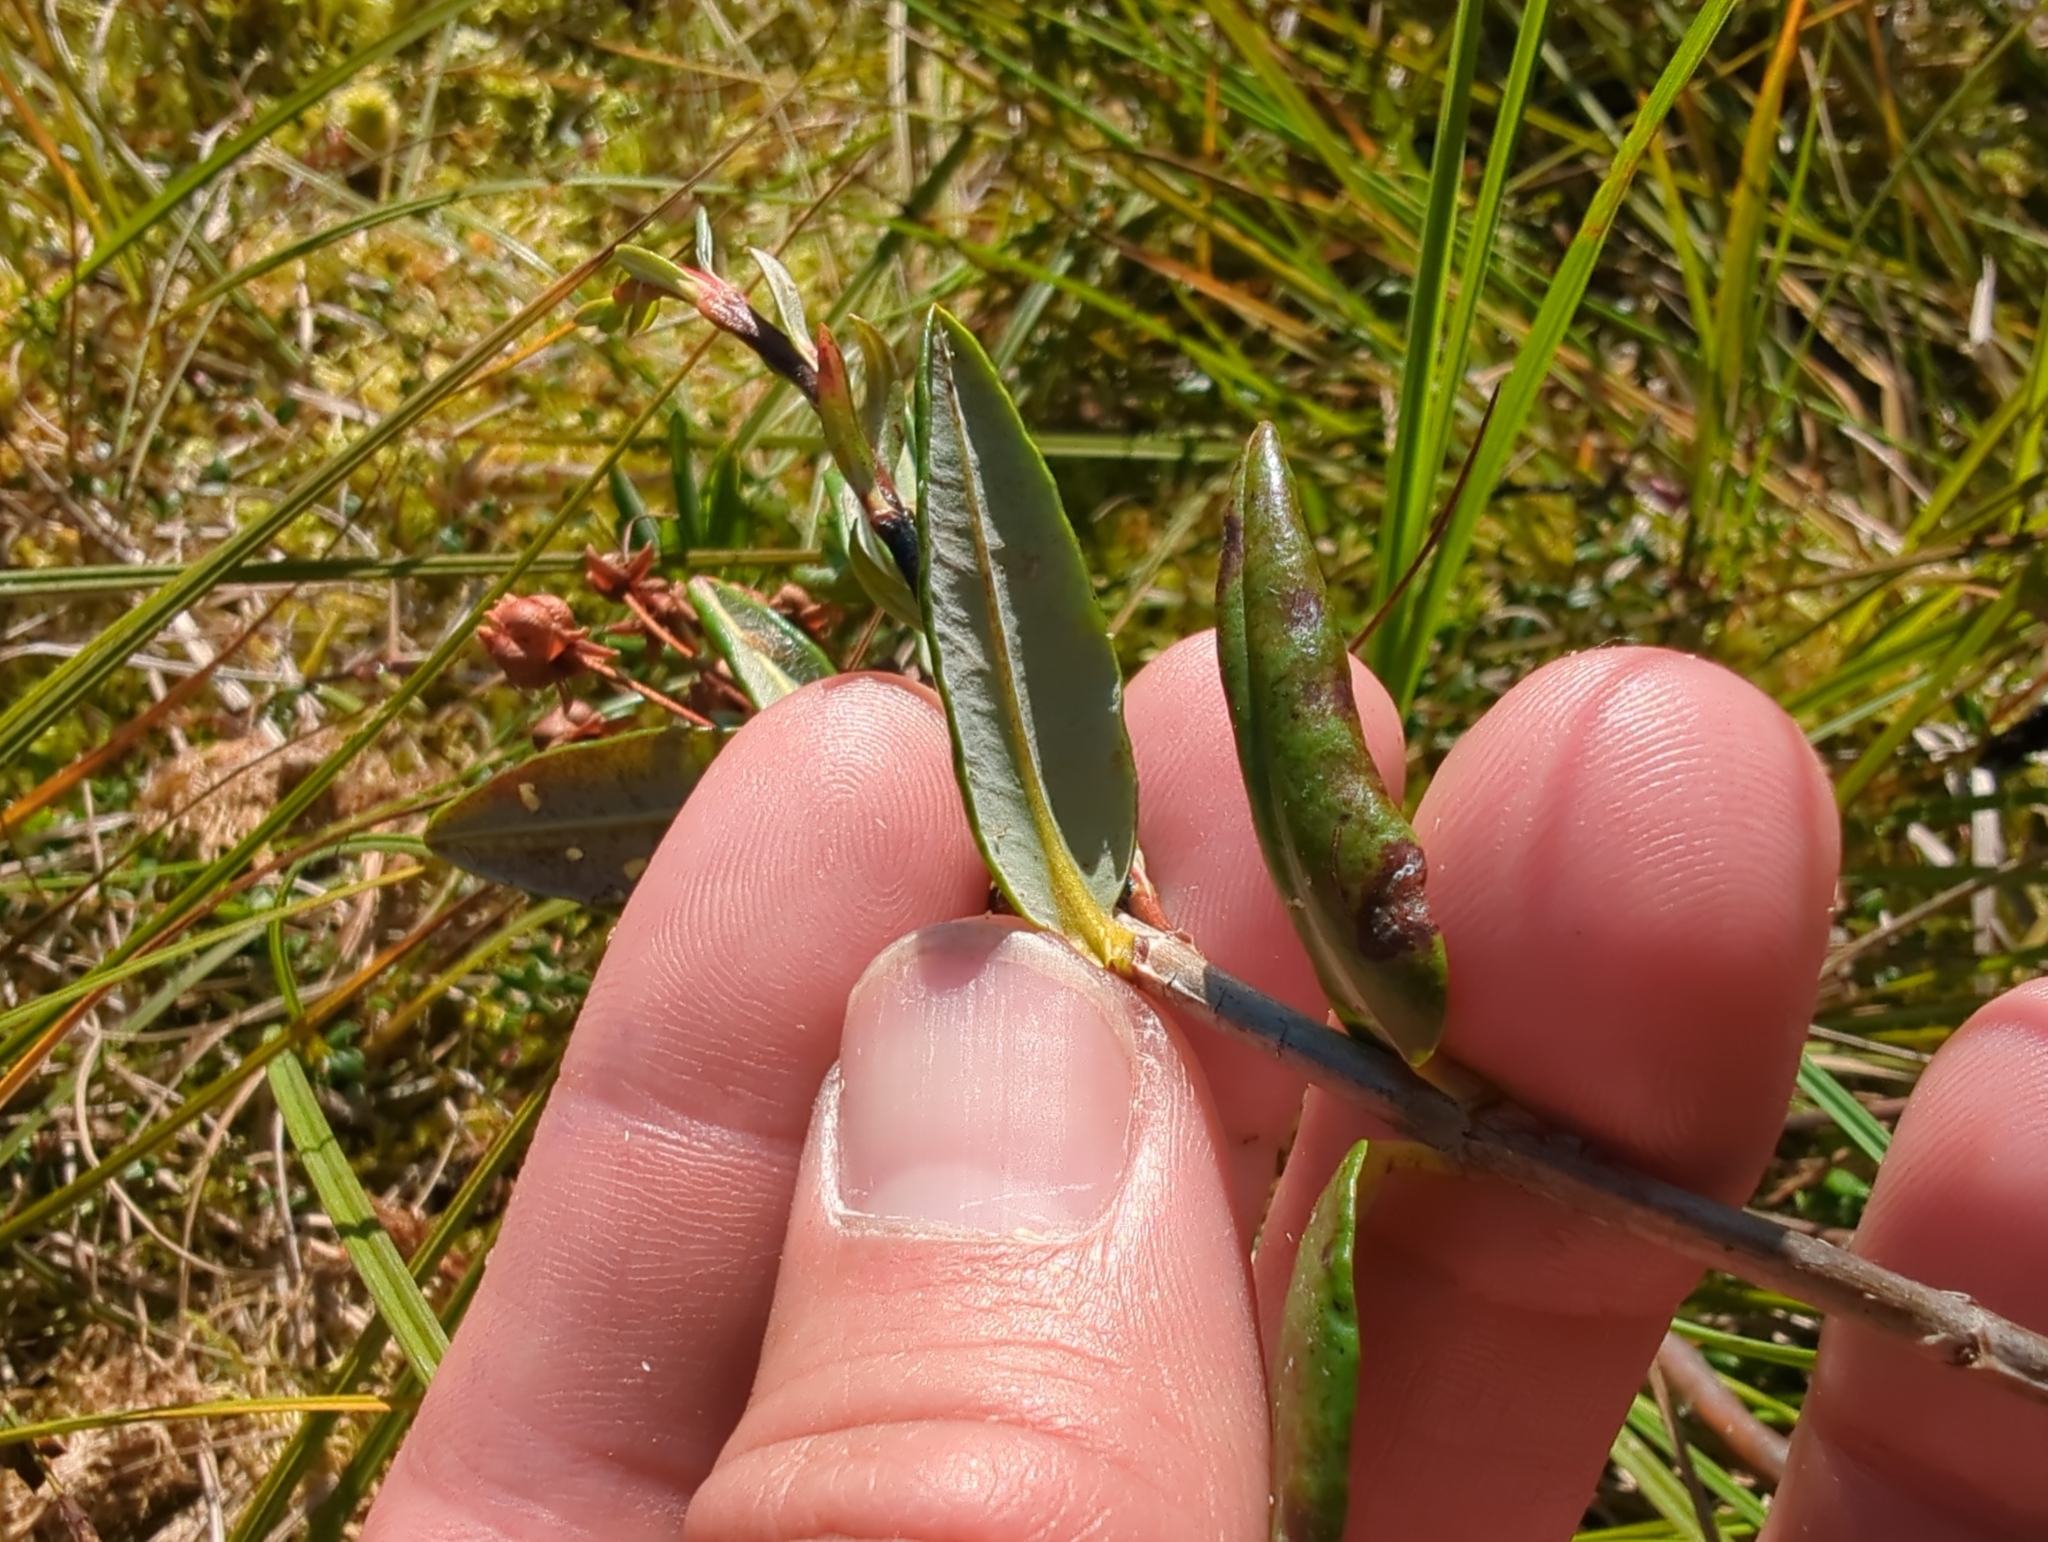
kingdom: Plantae
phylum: Tracheophyta
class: Magnoliopsida
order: Ericales
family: Ericaceae
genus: Kalmia
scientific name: Kalmia microphylla
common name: Alpine bog laurel
